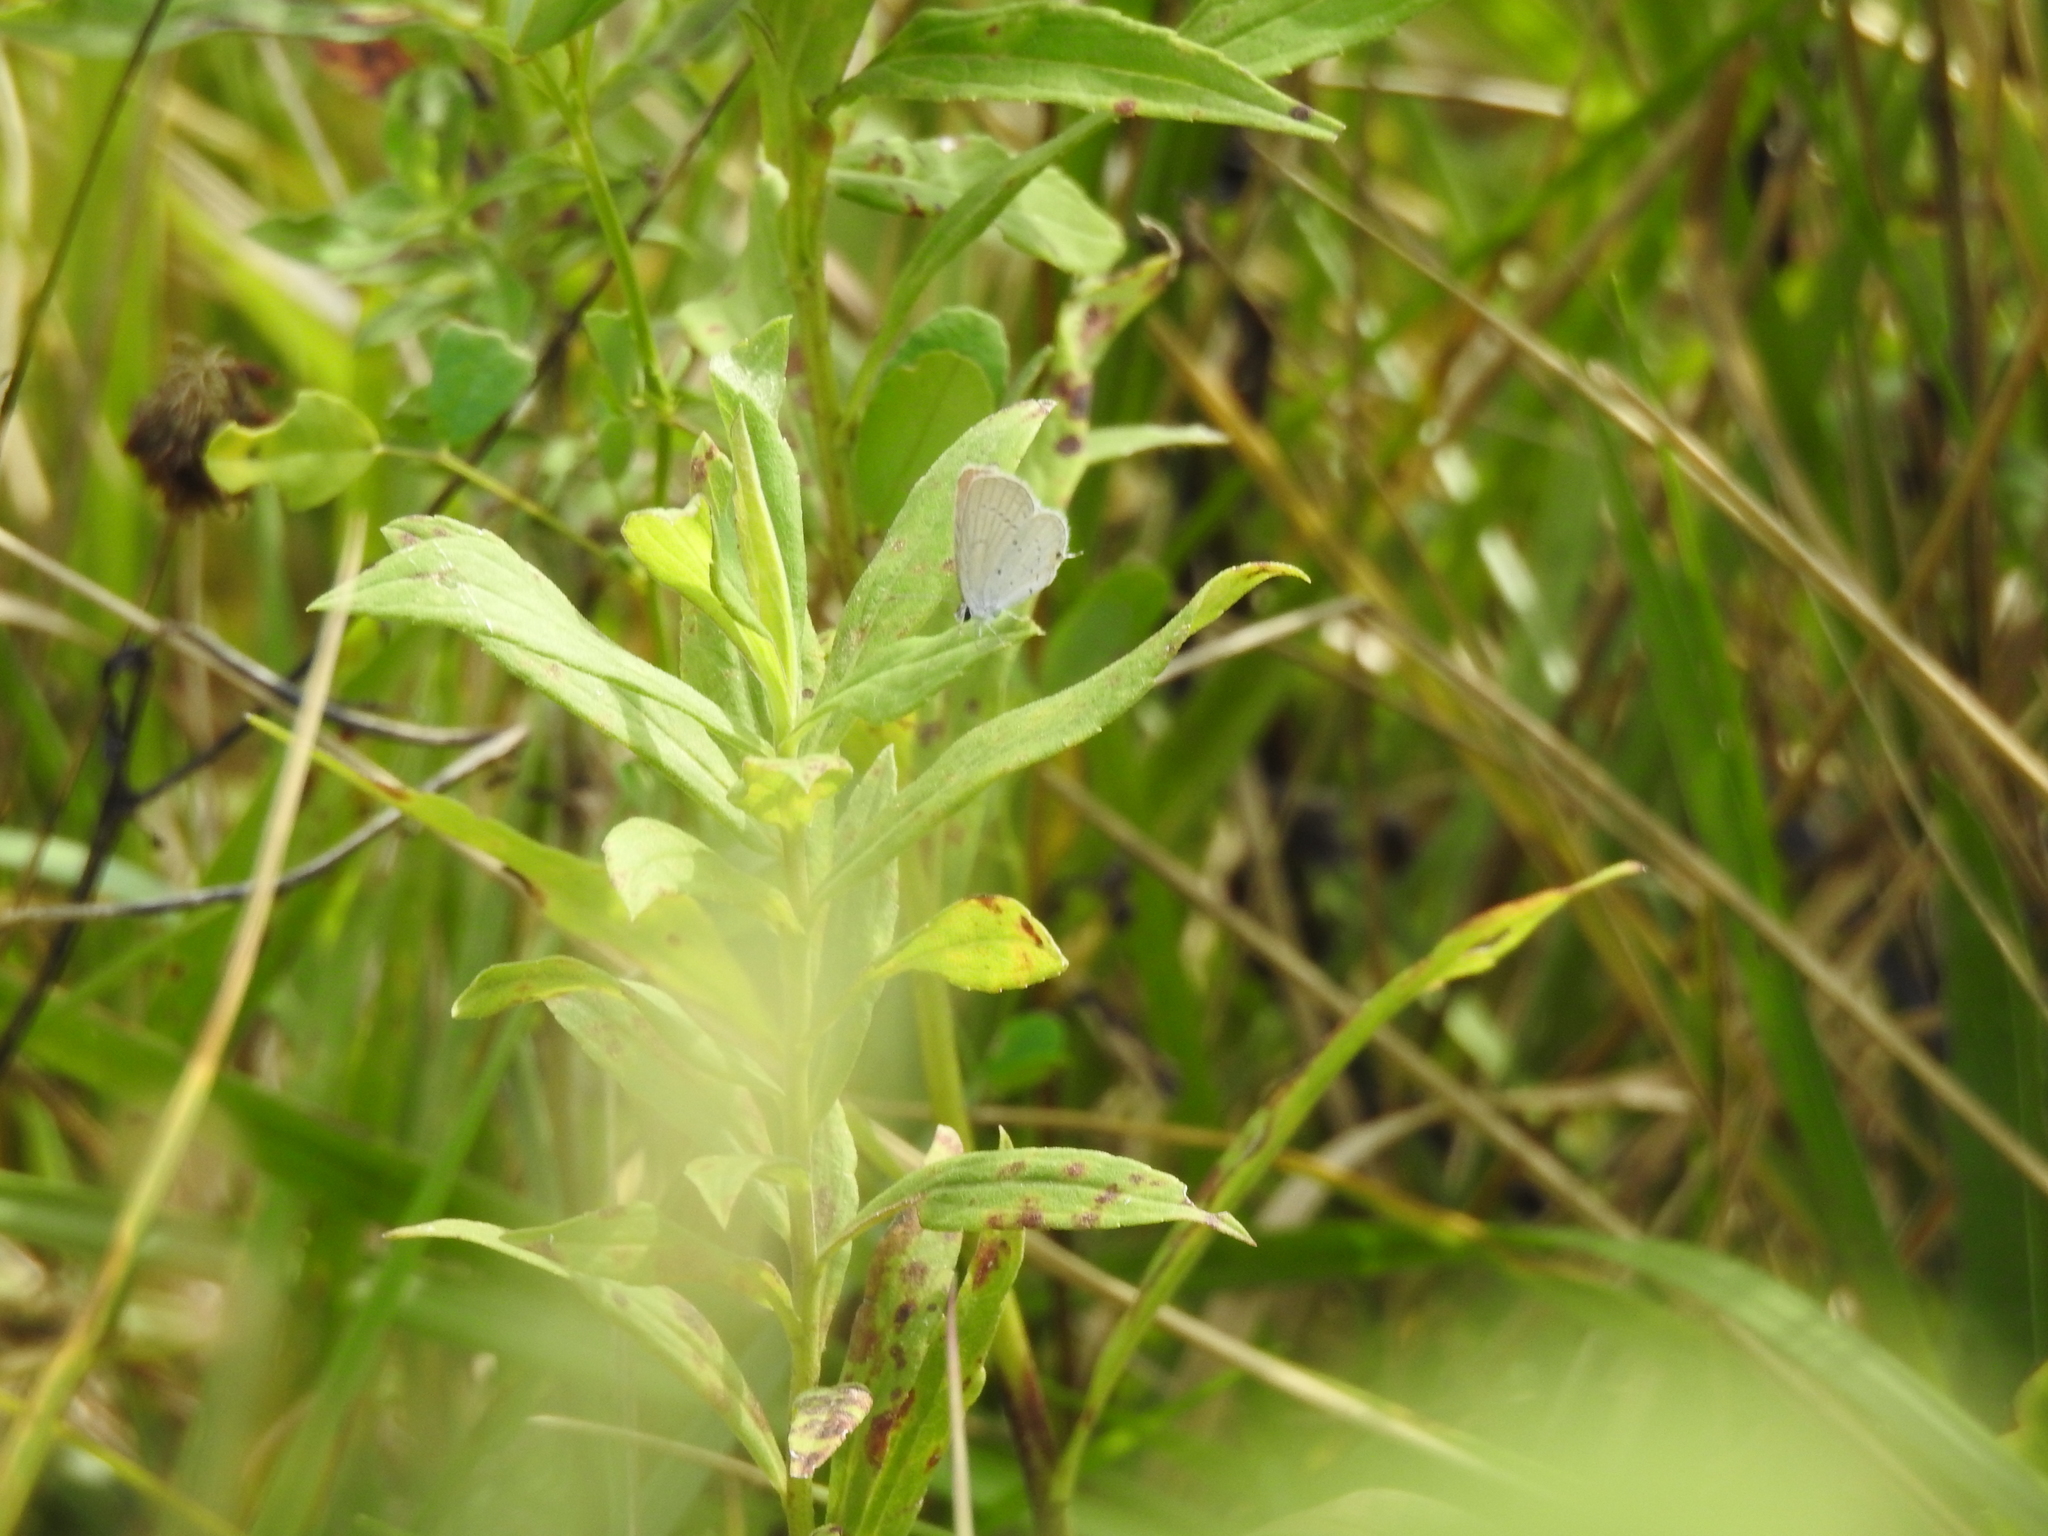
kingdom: Animalia
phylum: Arthropoda
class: Insecta
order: Lepidoptera
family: Lycaenidae
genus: Elkalyce
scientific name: Elkalyce comyntas
